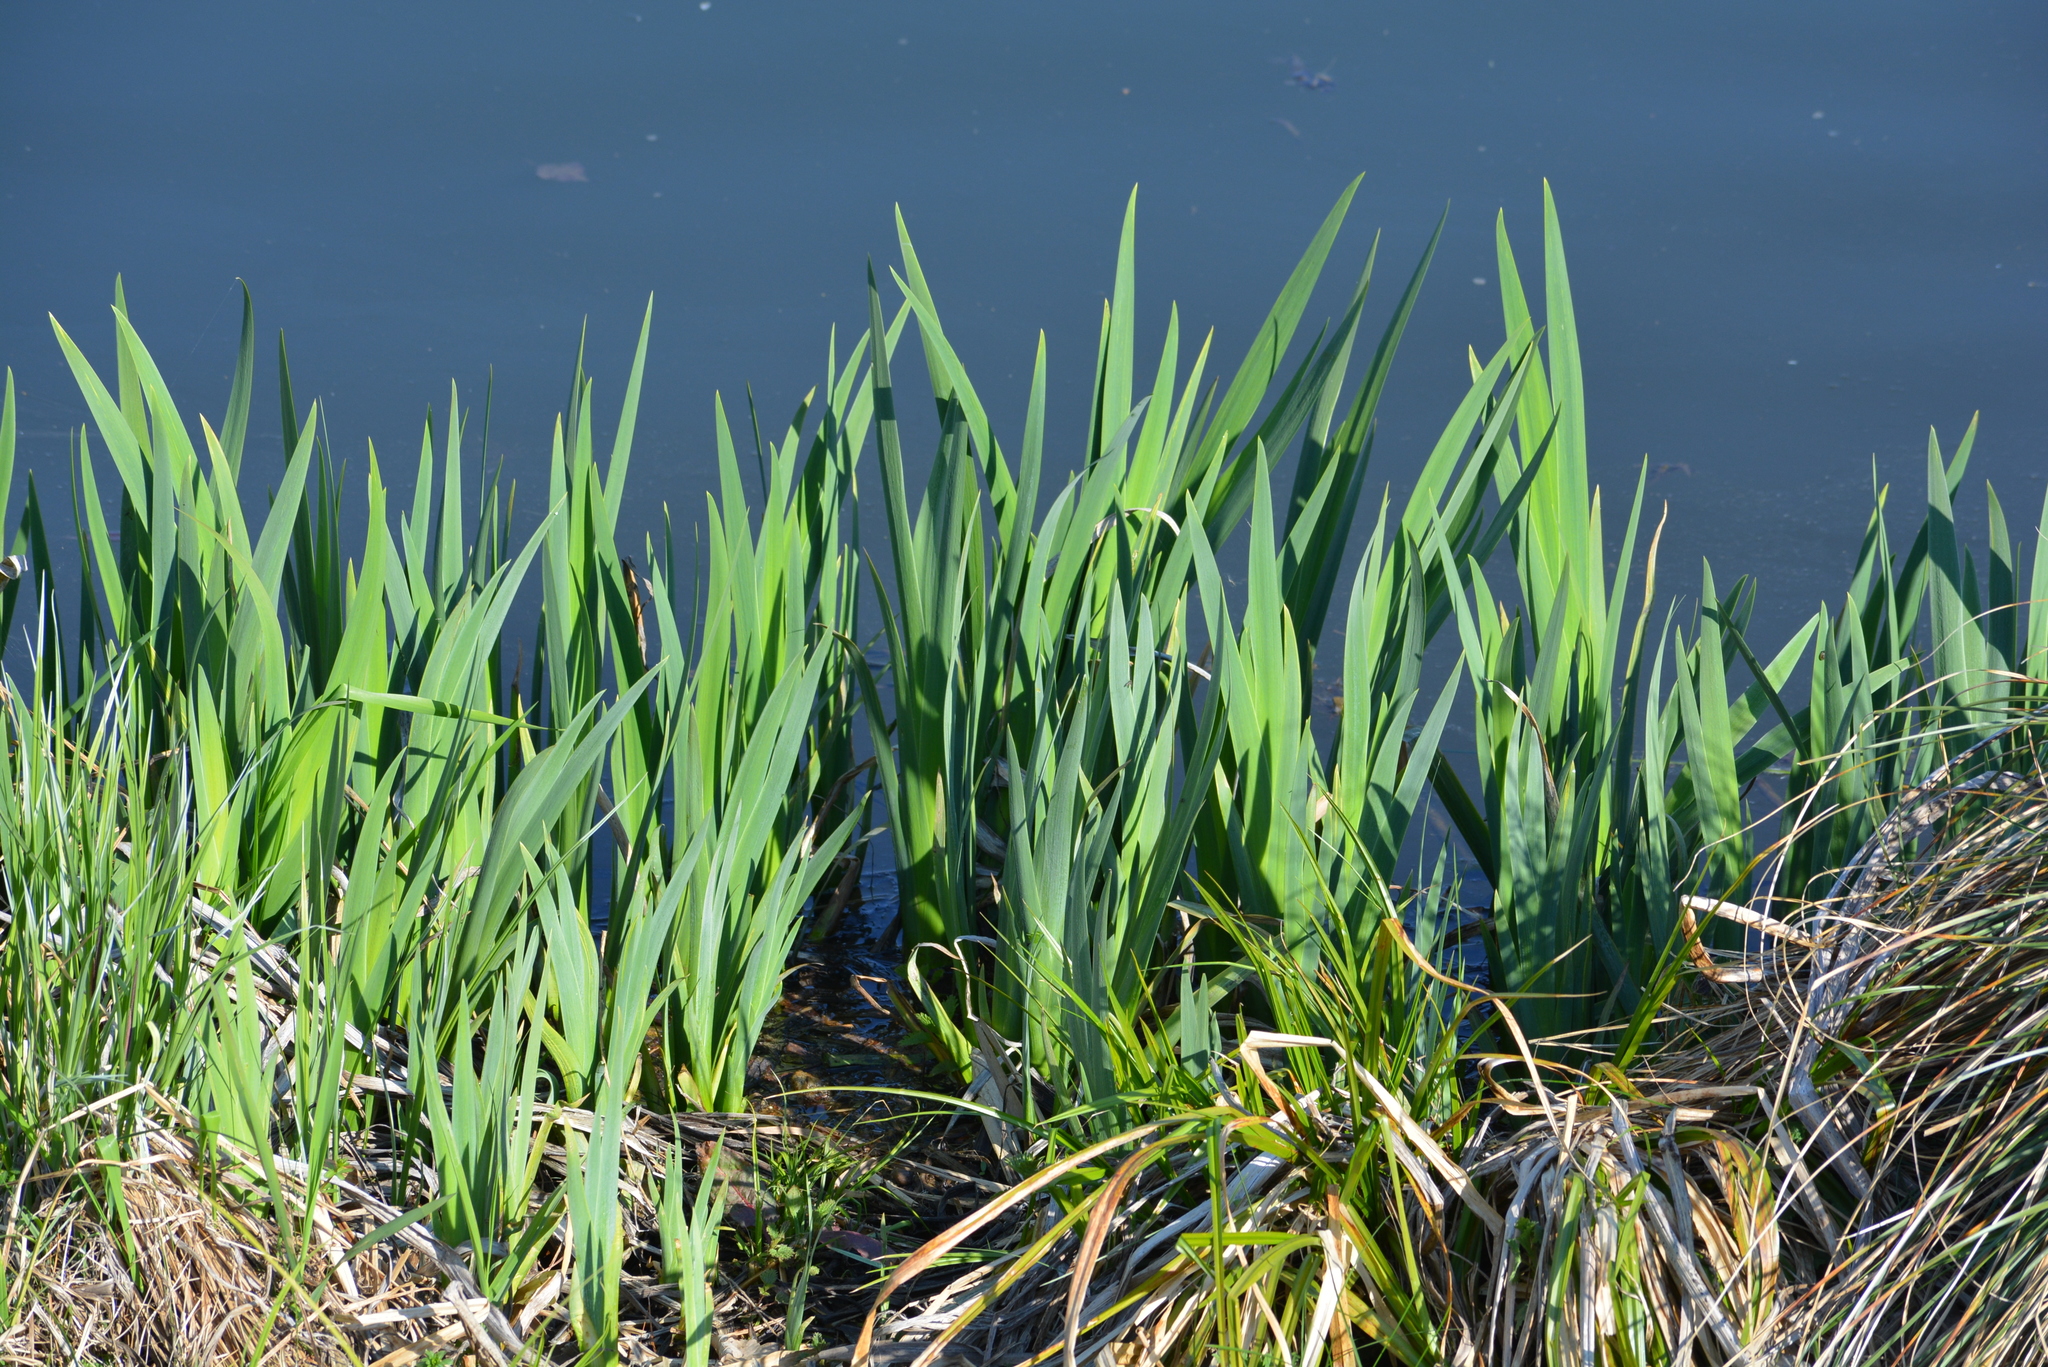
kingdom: Plantae
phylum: Tracheophyta
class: Liliopsida
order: Asparagales
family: Iridaceae
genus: Iris
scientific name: Iris pseudacorus
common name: Yellow flag
